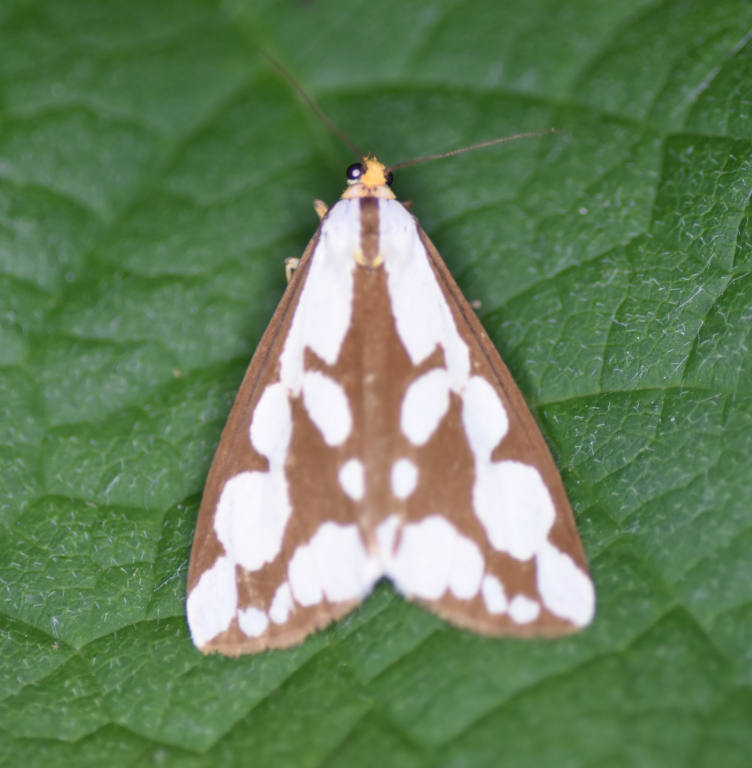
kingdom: Animalia
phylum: Arthropoda
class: Insecta
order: Lepidoptera
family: Erebidae
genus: Haploa
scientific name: Haploa confusa
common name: Confused haploa moth
